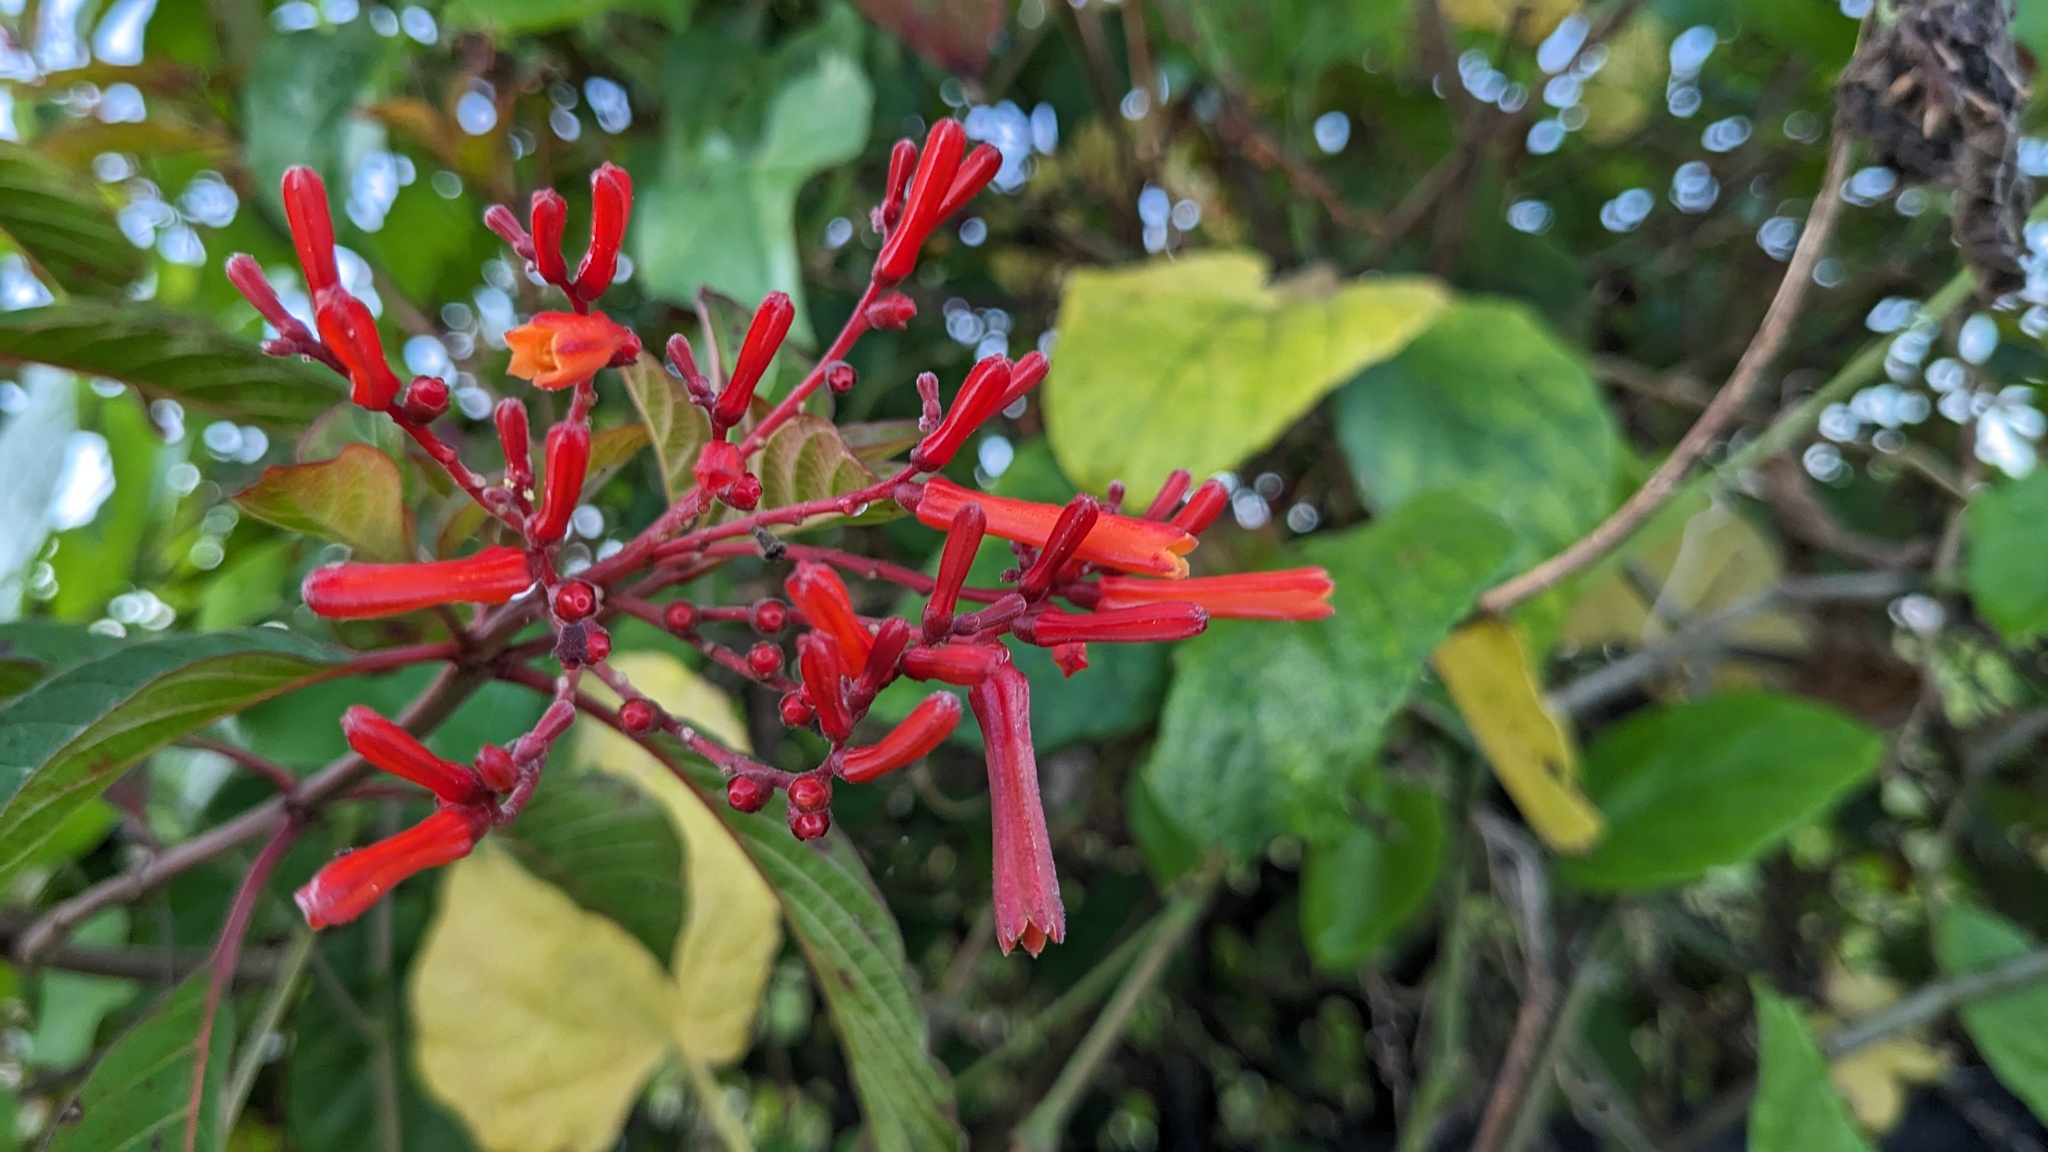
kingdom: Plantae
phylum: Tracheophyta
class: Magnoliopsida
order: Gentianales
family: Rubiaceae
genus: Hamelia
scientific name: Hamelia patens
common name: Redhead
